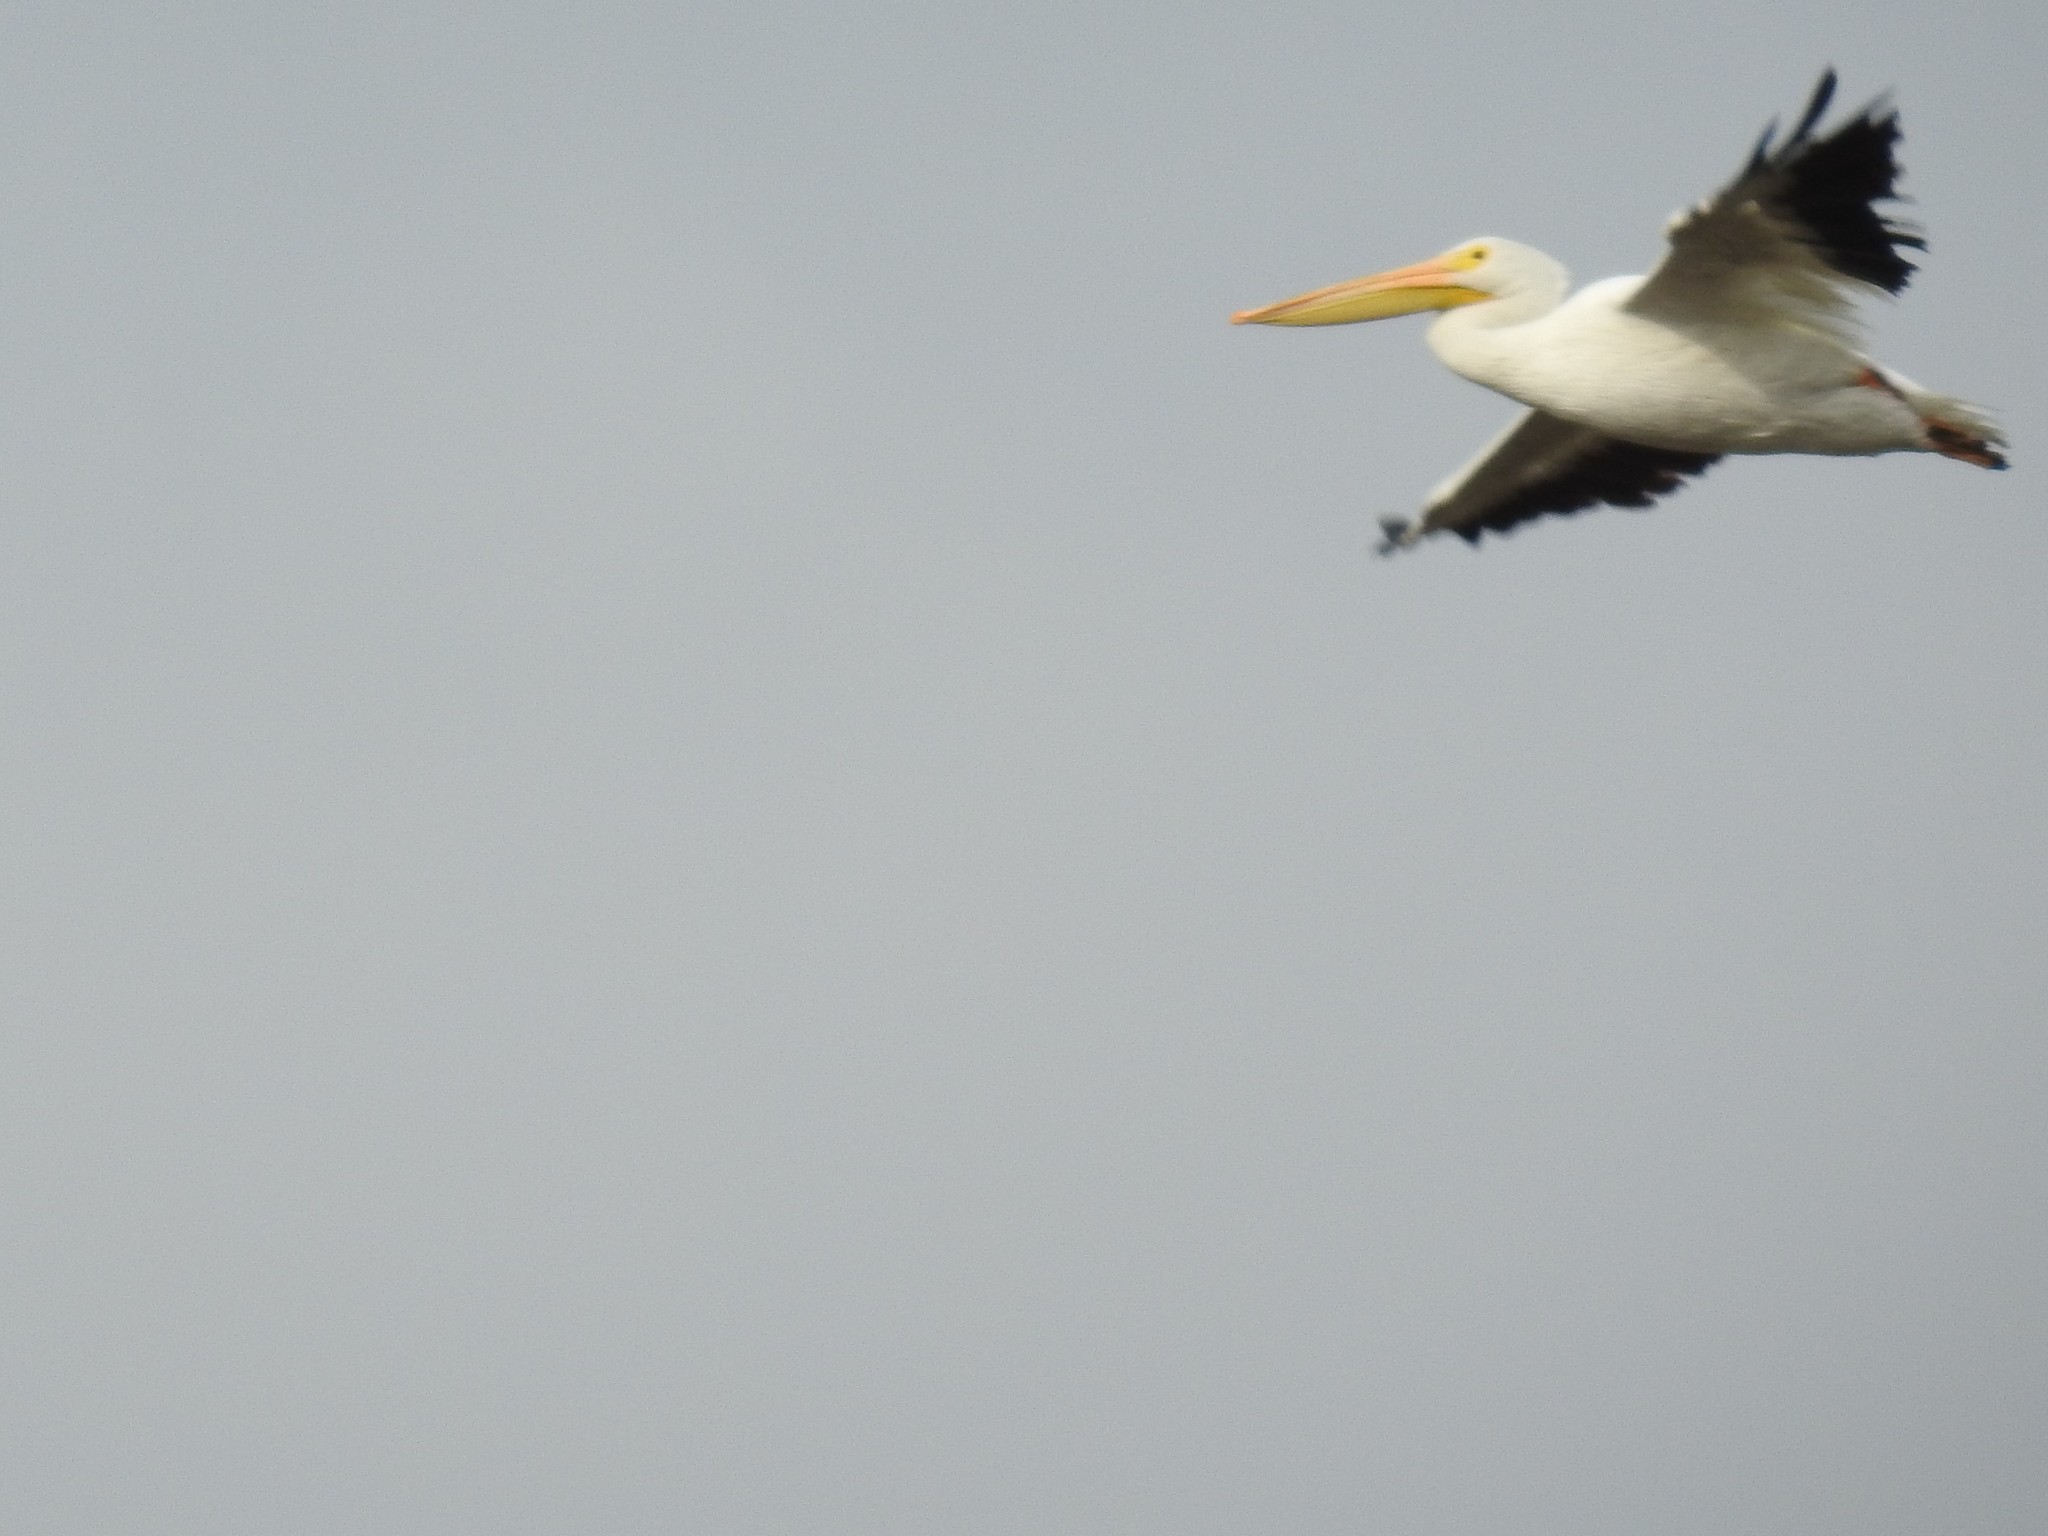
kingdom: Animalia
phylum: Chordata
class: Aves
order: Pelecaniformes
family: Pelecanidae
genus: Pelecanus
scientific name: Pelecanus erythrorhynchos
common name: American white pelican
